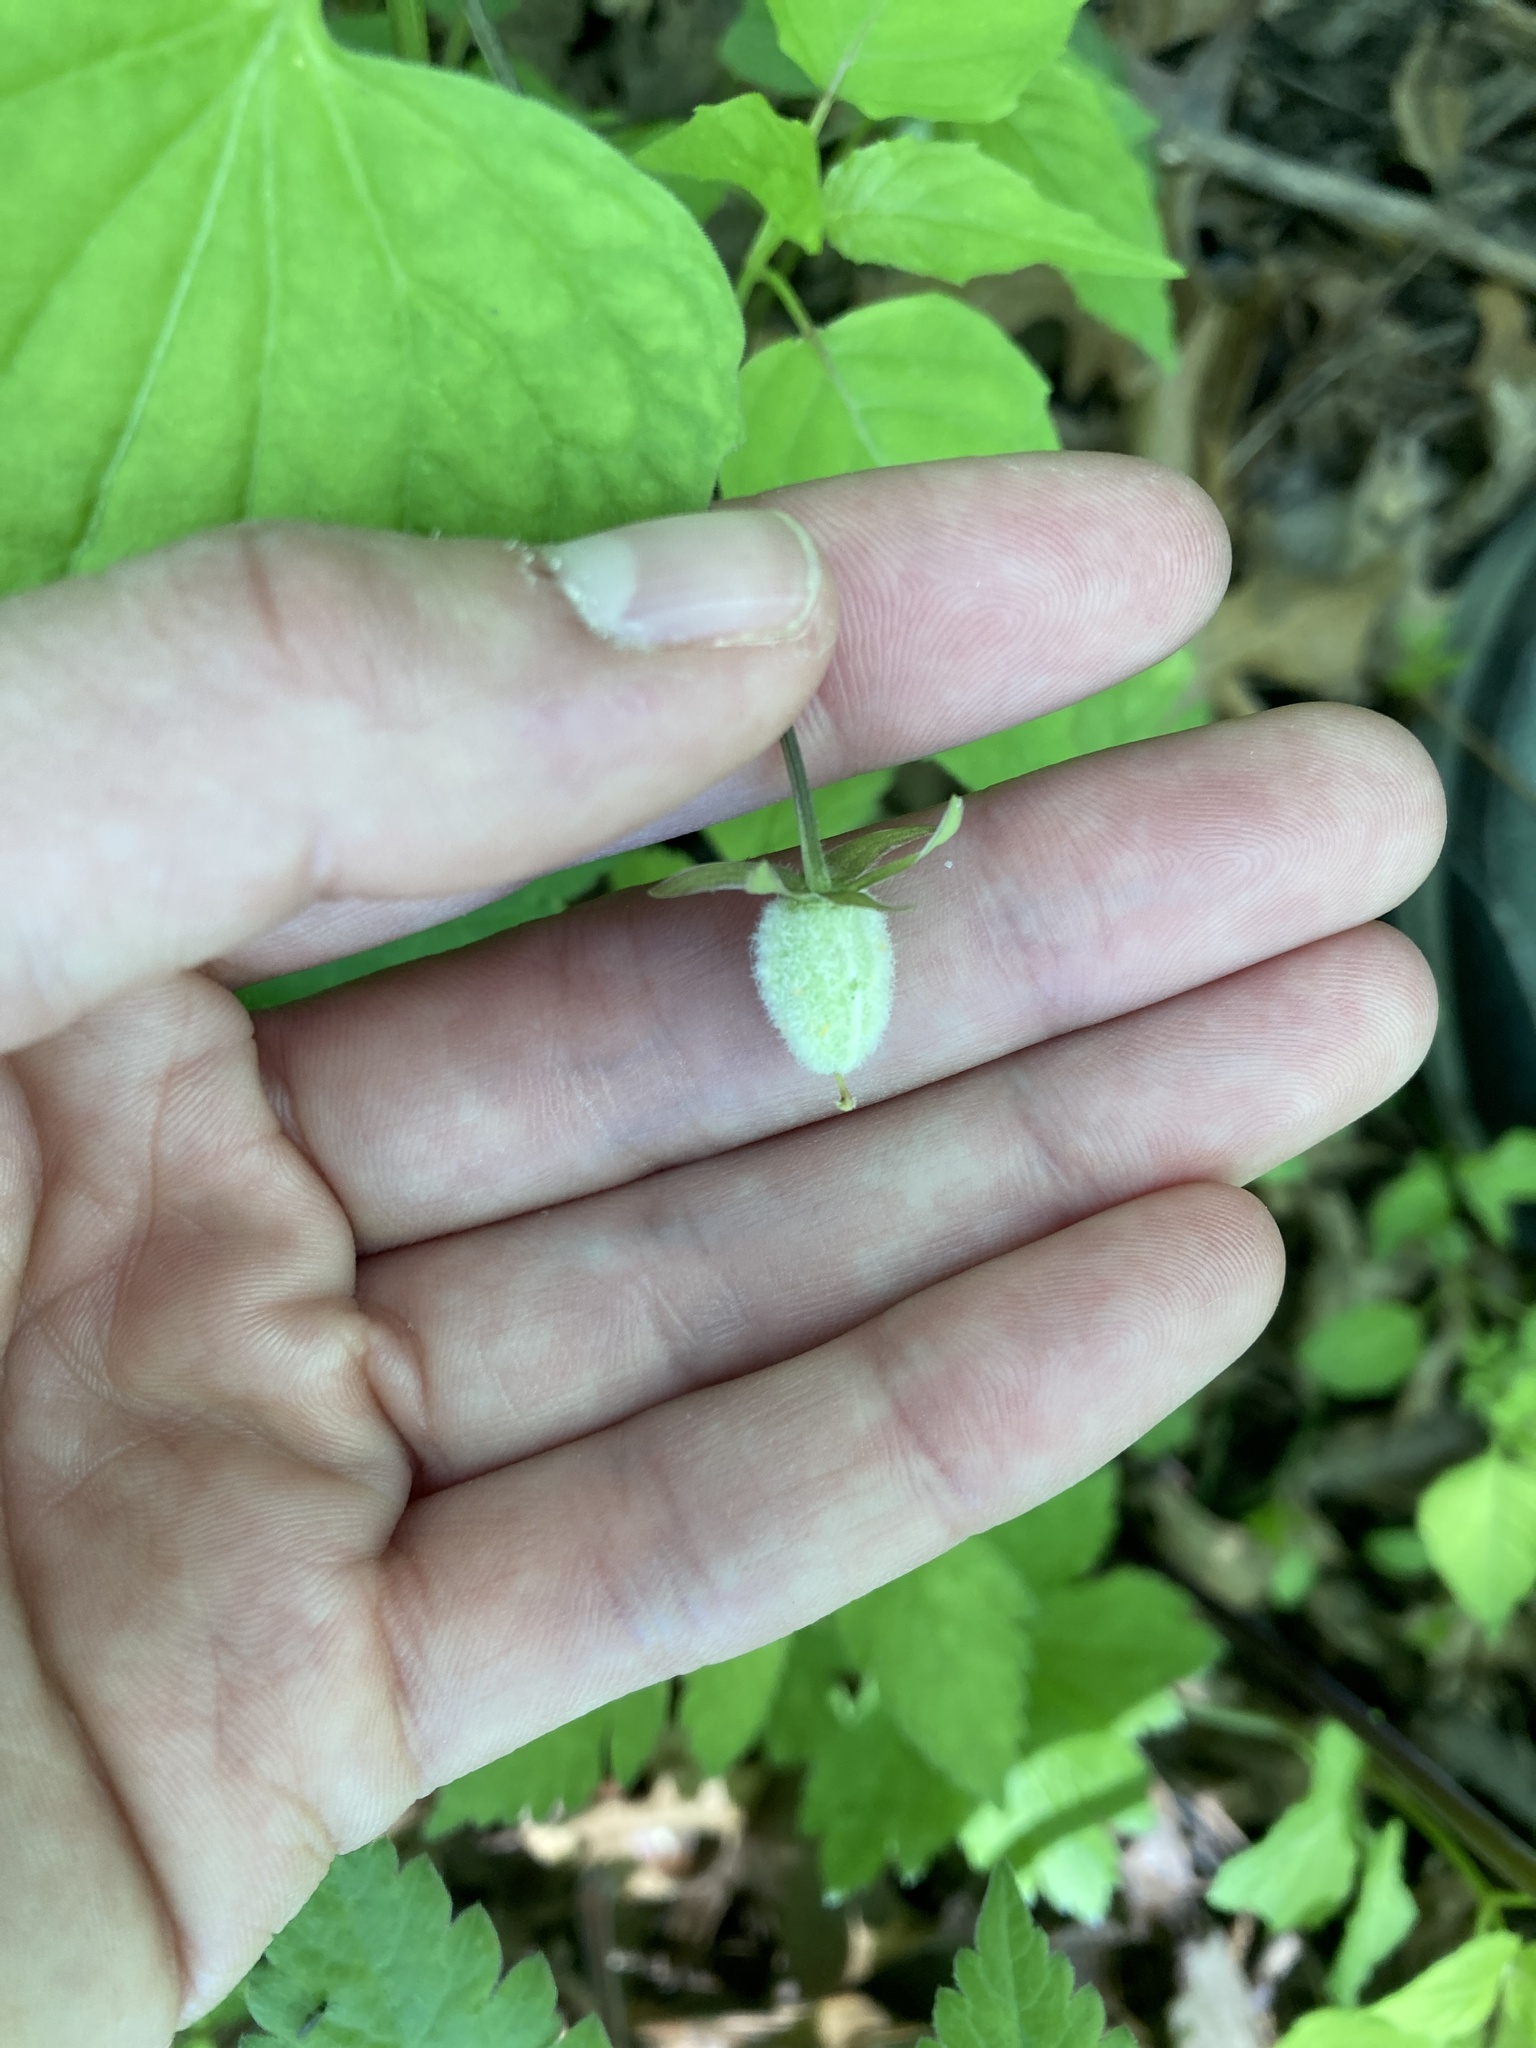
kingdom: Plantae
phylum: Tracheophyta
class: Magnoliopsida
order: Malpighiales
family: Violaceae
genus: Viola
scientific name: Viola eriocarpa
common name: Smooth yellow violet
